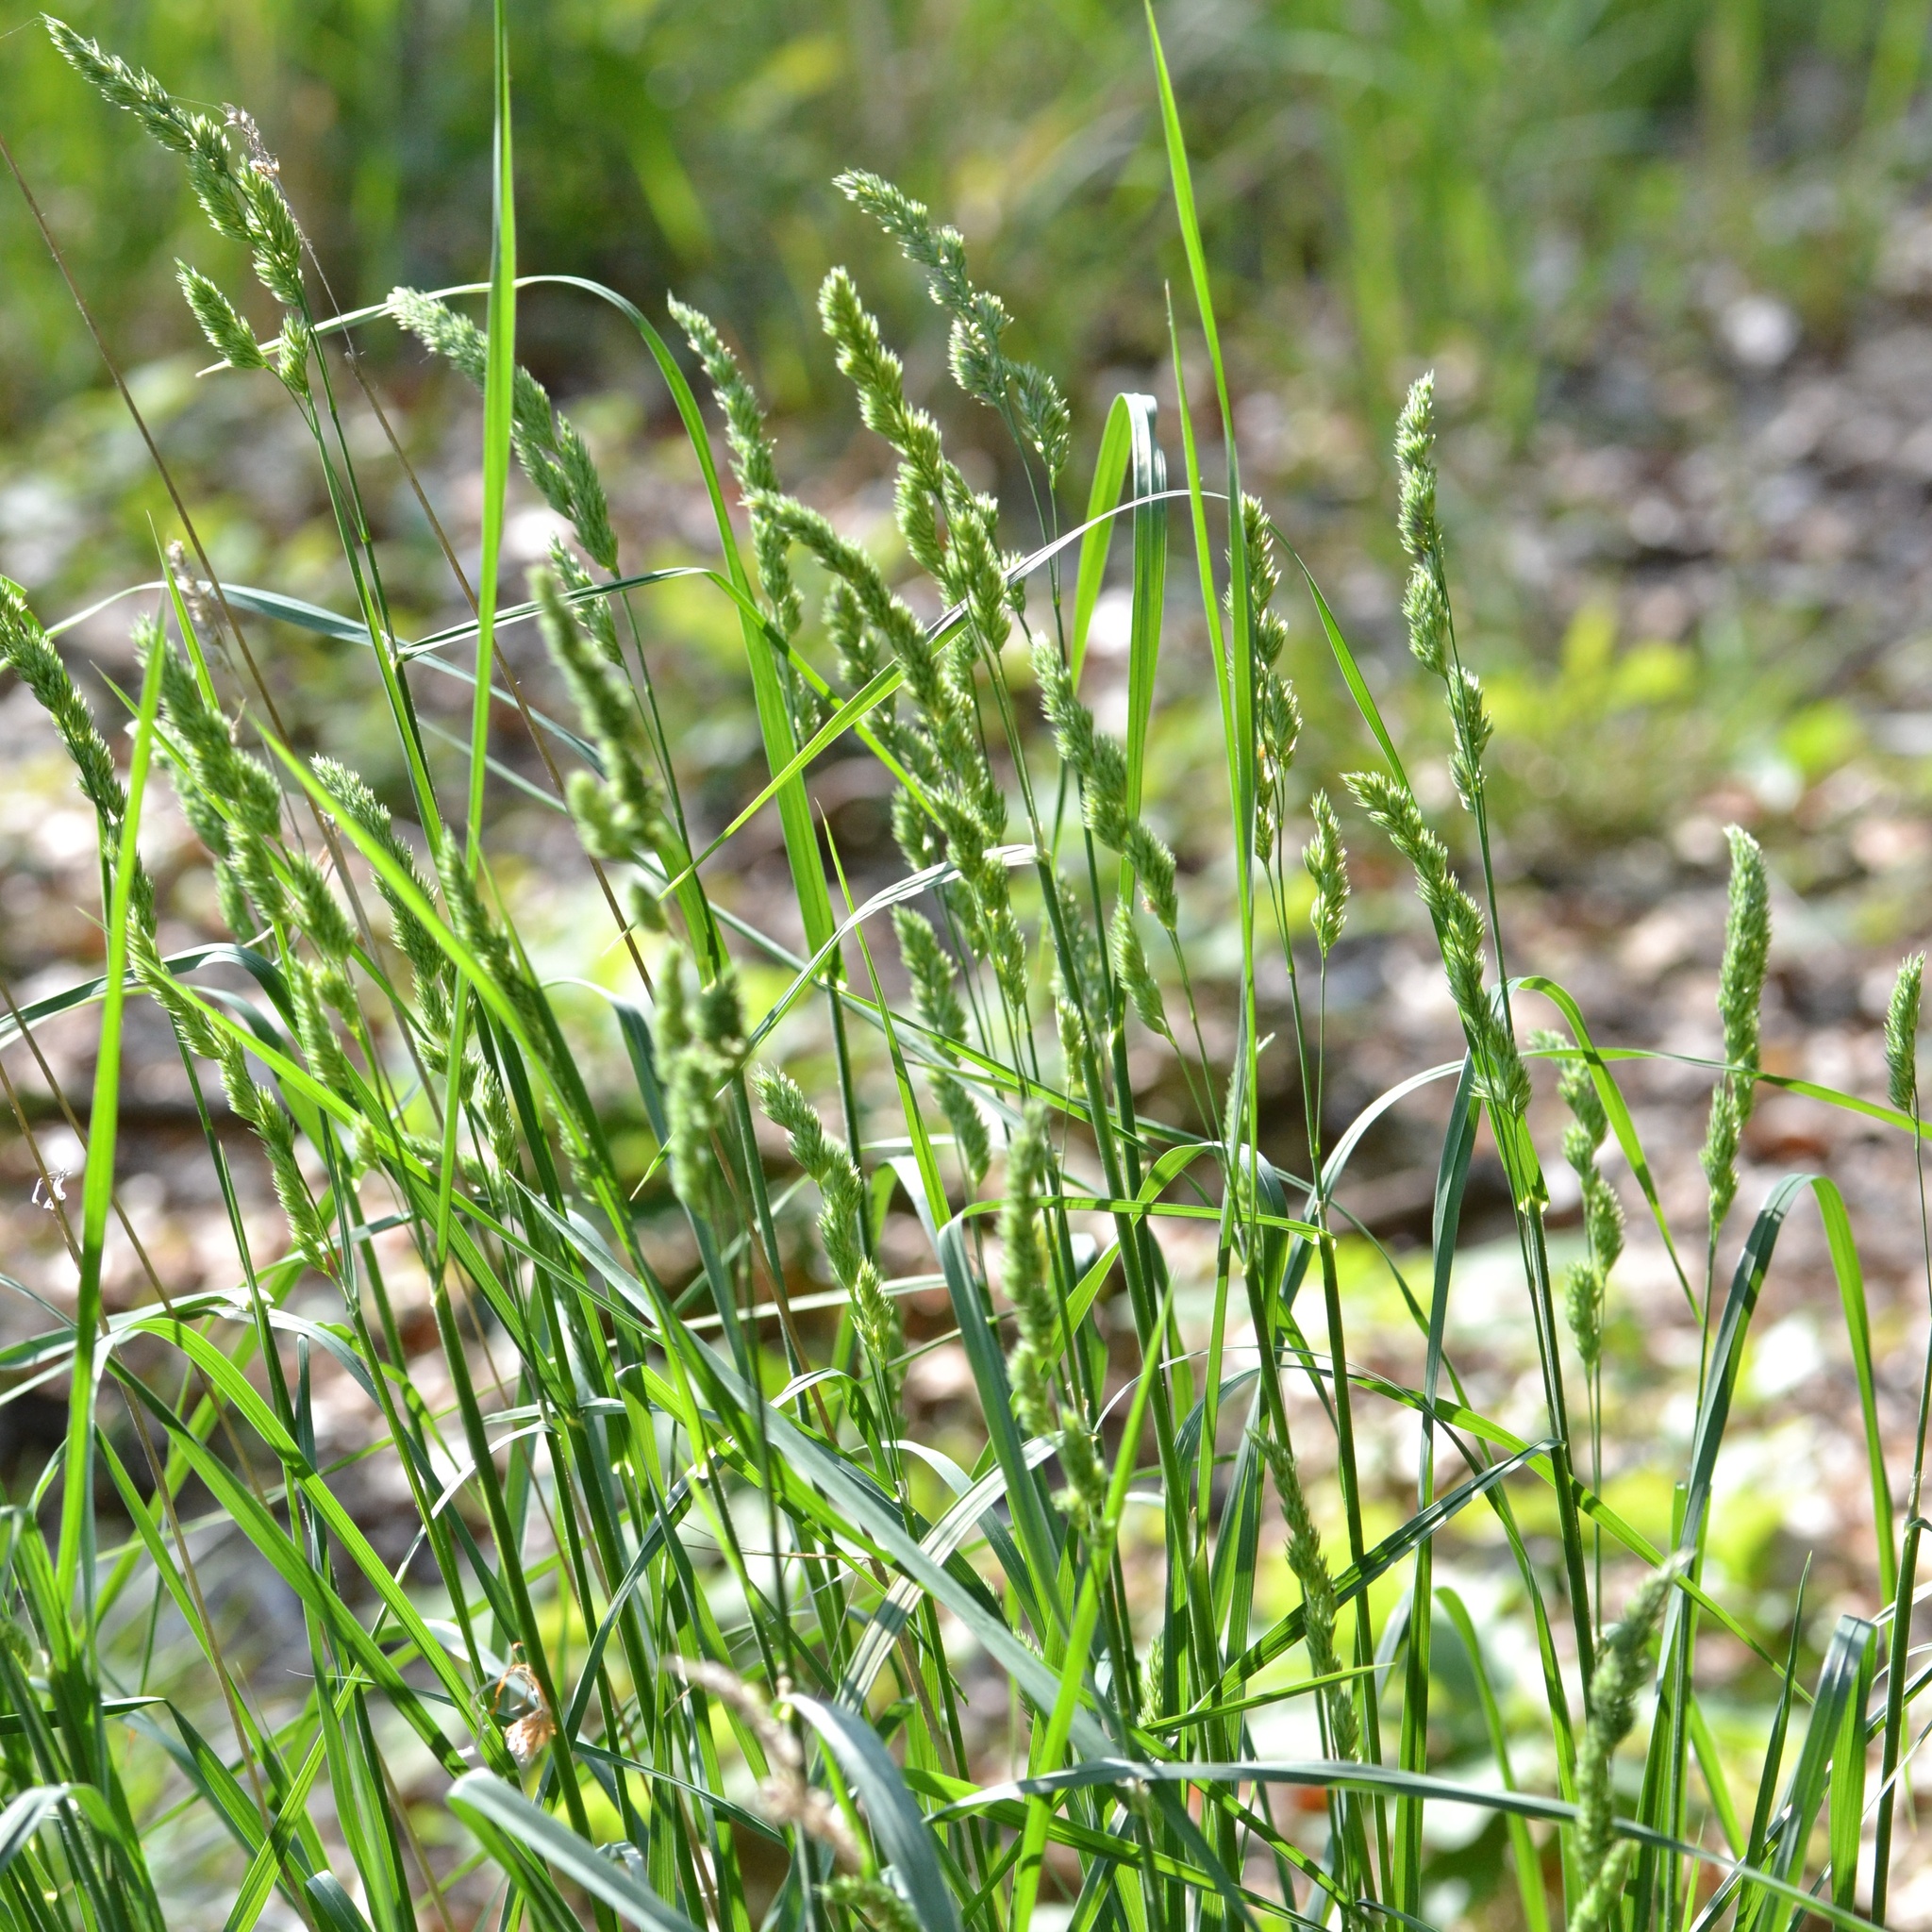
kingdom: Plantae
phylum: Tracheophyta
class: Liliopsida
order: Poales
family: Poaceae
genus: Dactylis
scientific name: Dactylis glomerata
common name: Orchardgrass
